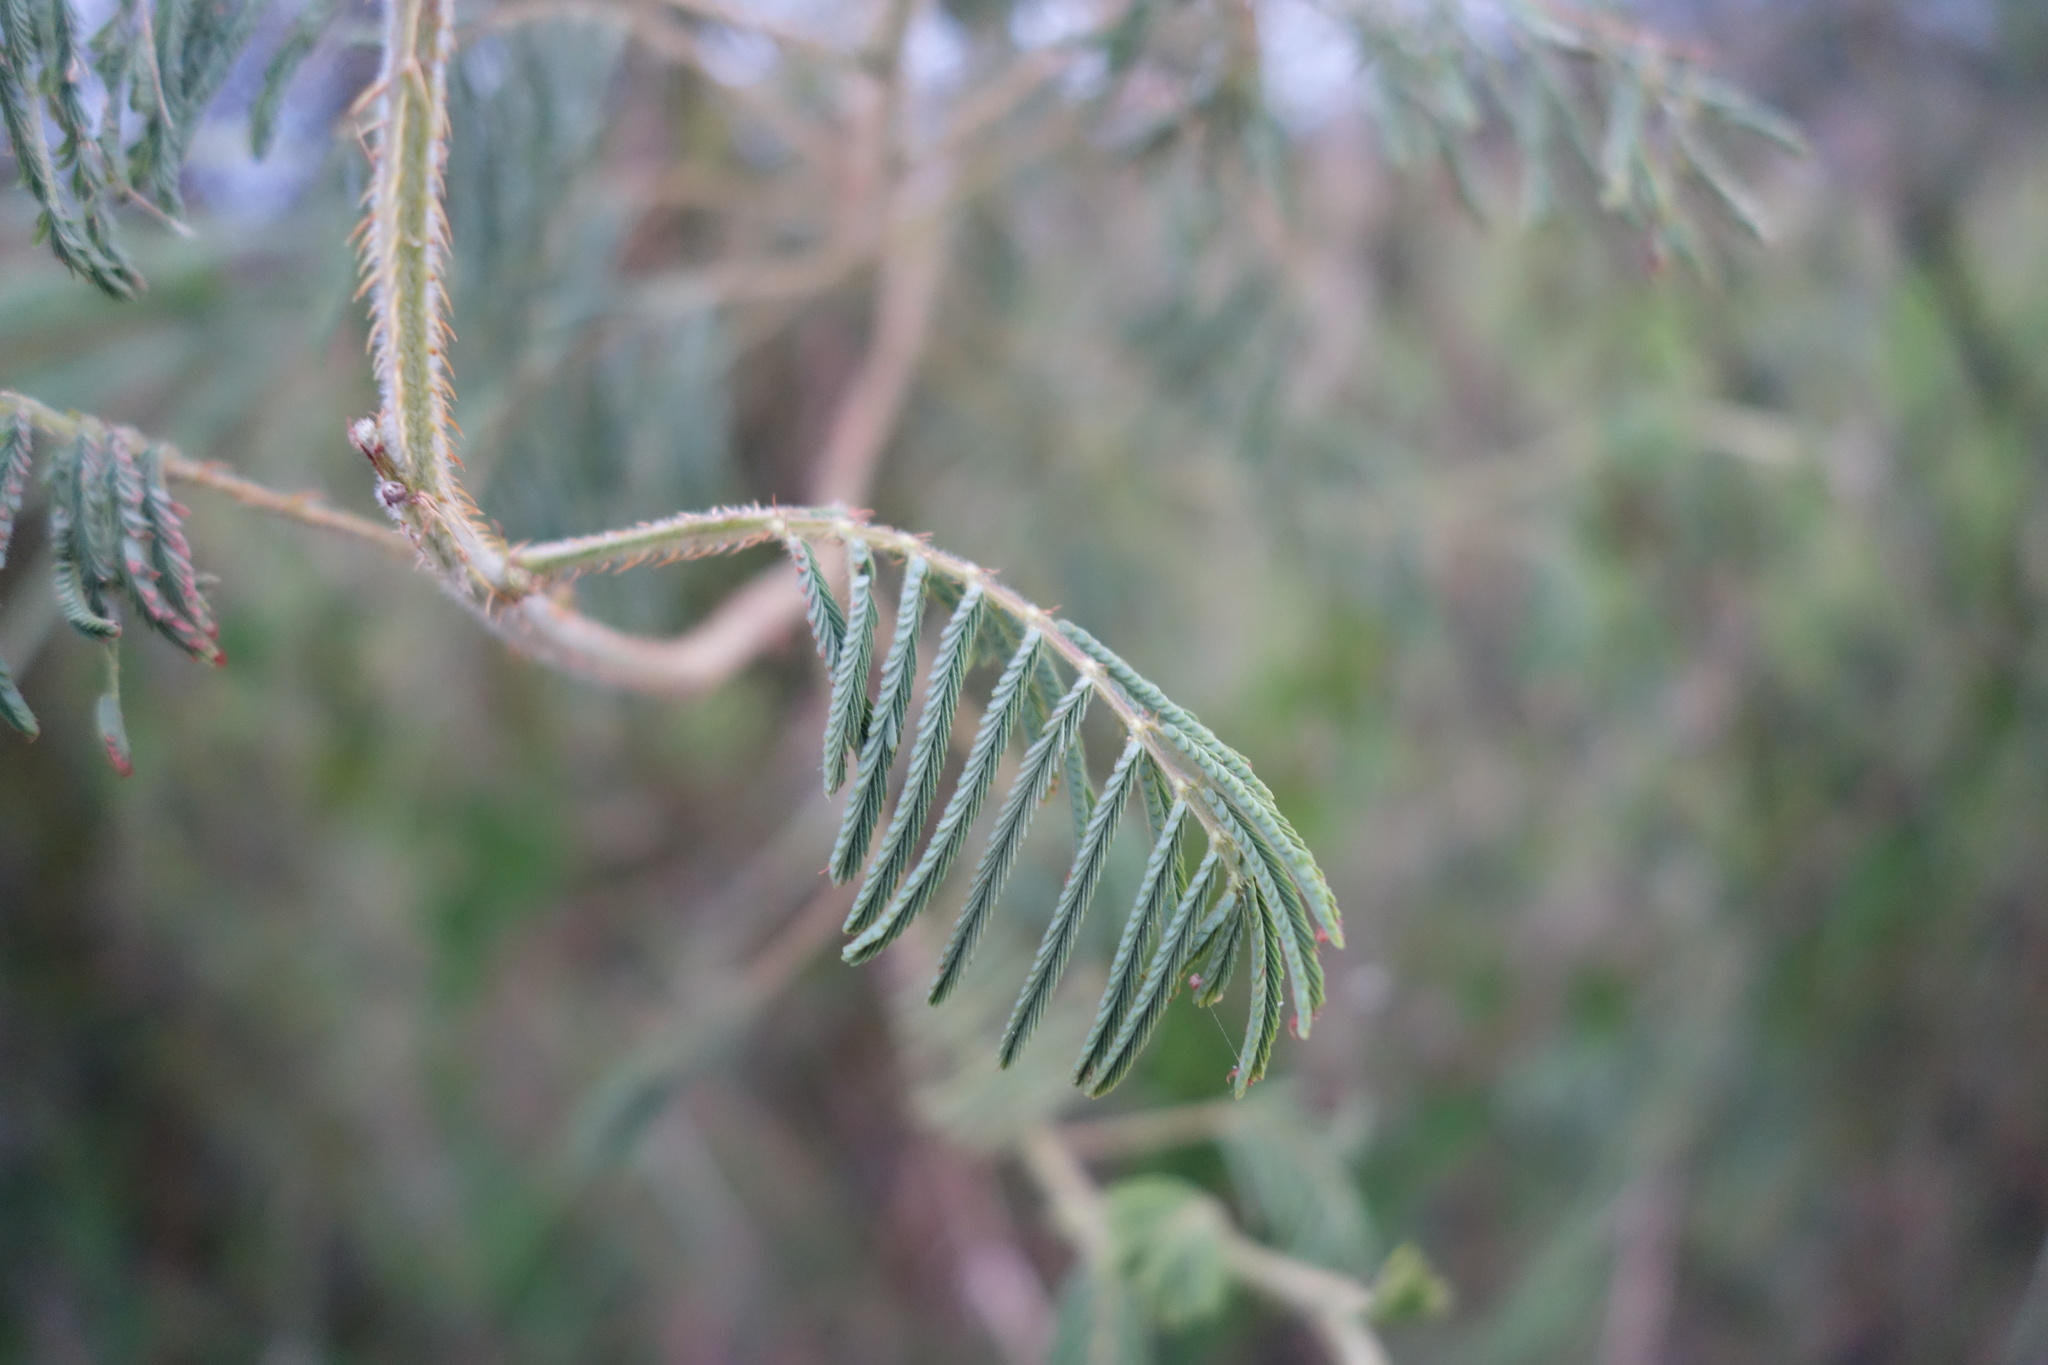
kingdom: Plantae
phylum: Tracheophyta
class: Magnoliopsida
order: Fabales
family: Fabaceae
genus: Mimosa
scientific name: Mimosa diplotricha
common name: Giant sensitive-plant
